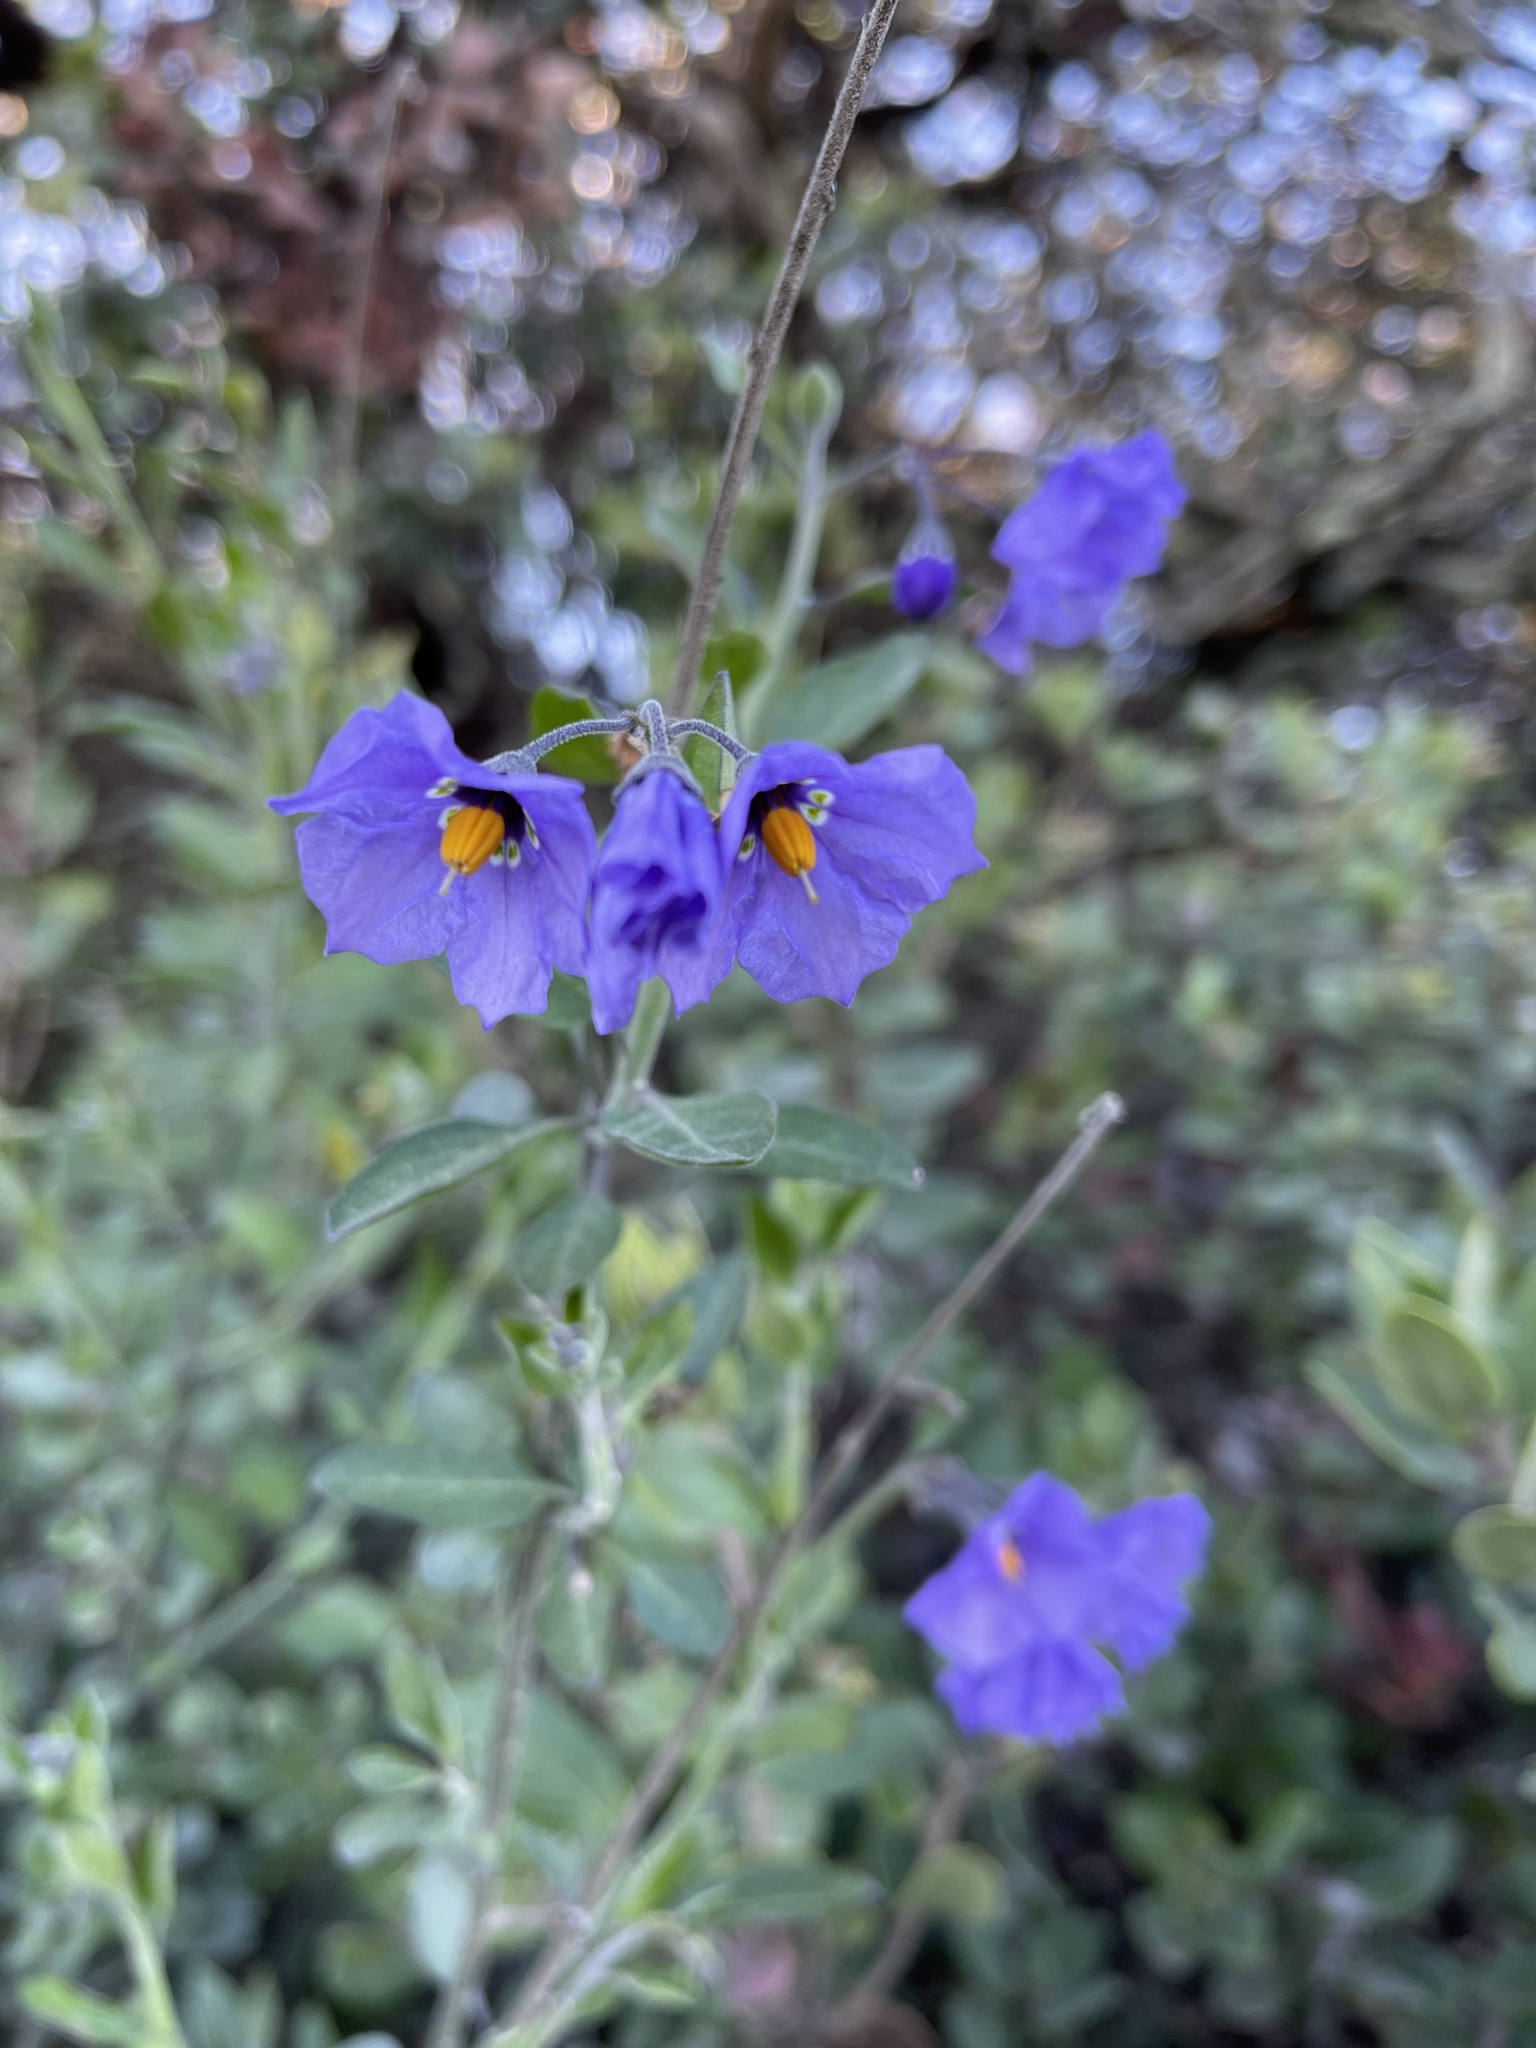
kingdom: Plantae
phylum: Tracheophyta
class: Magnoliopsida
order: Solanales
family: Solanaceae
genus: Solanum
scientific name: Solanum umbelliferum
